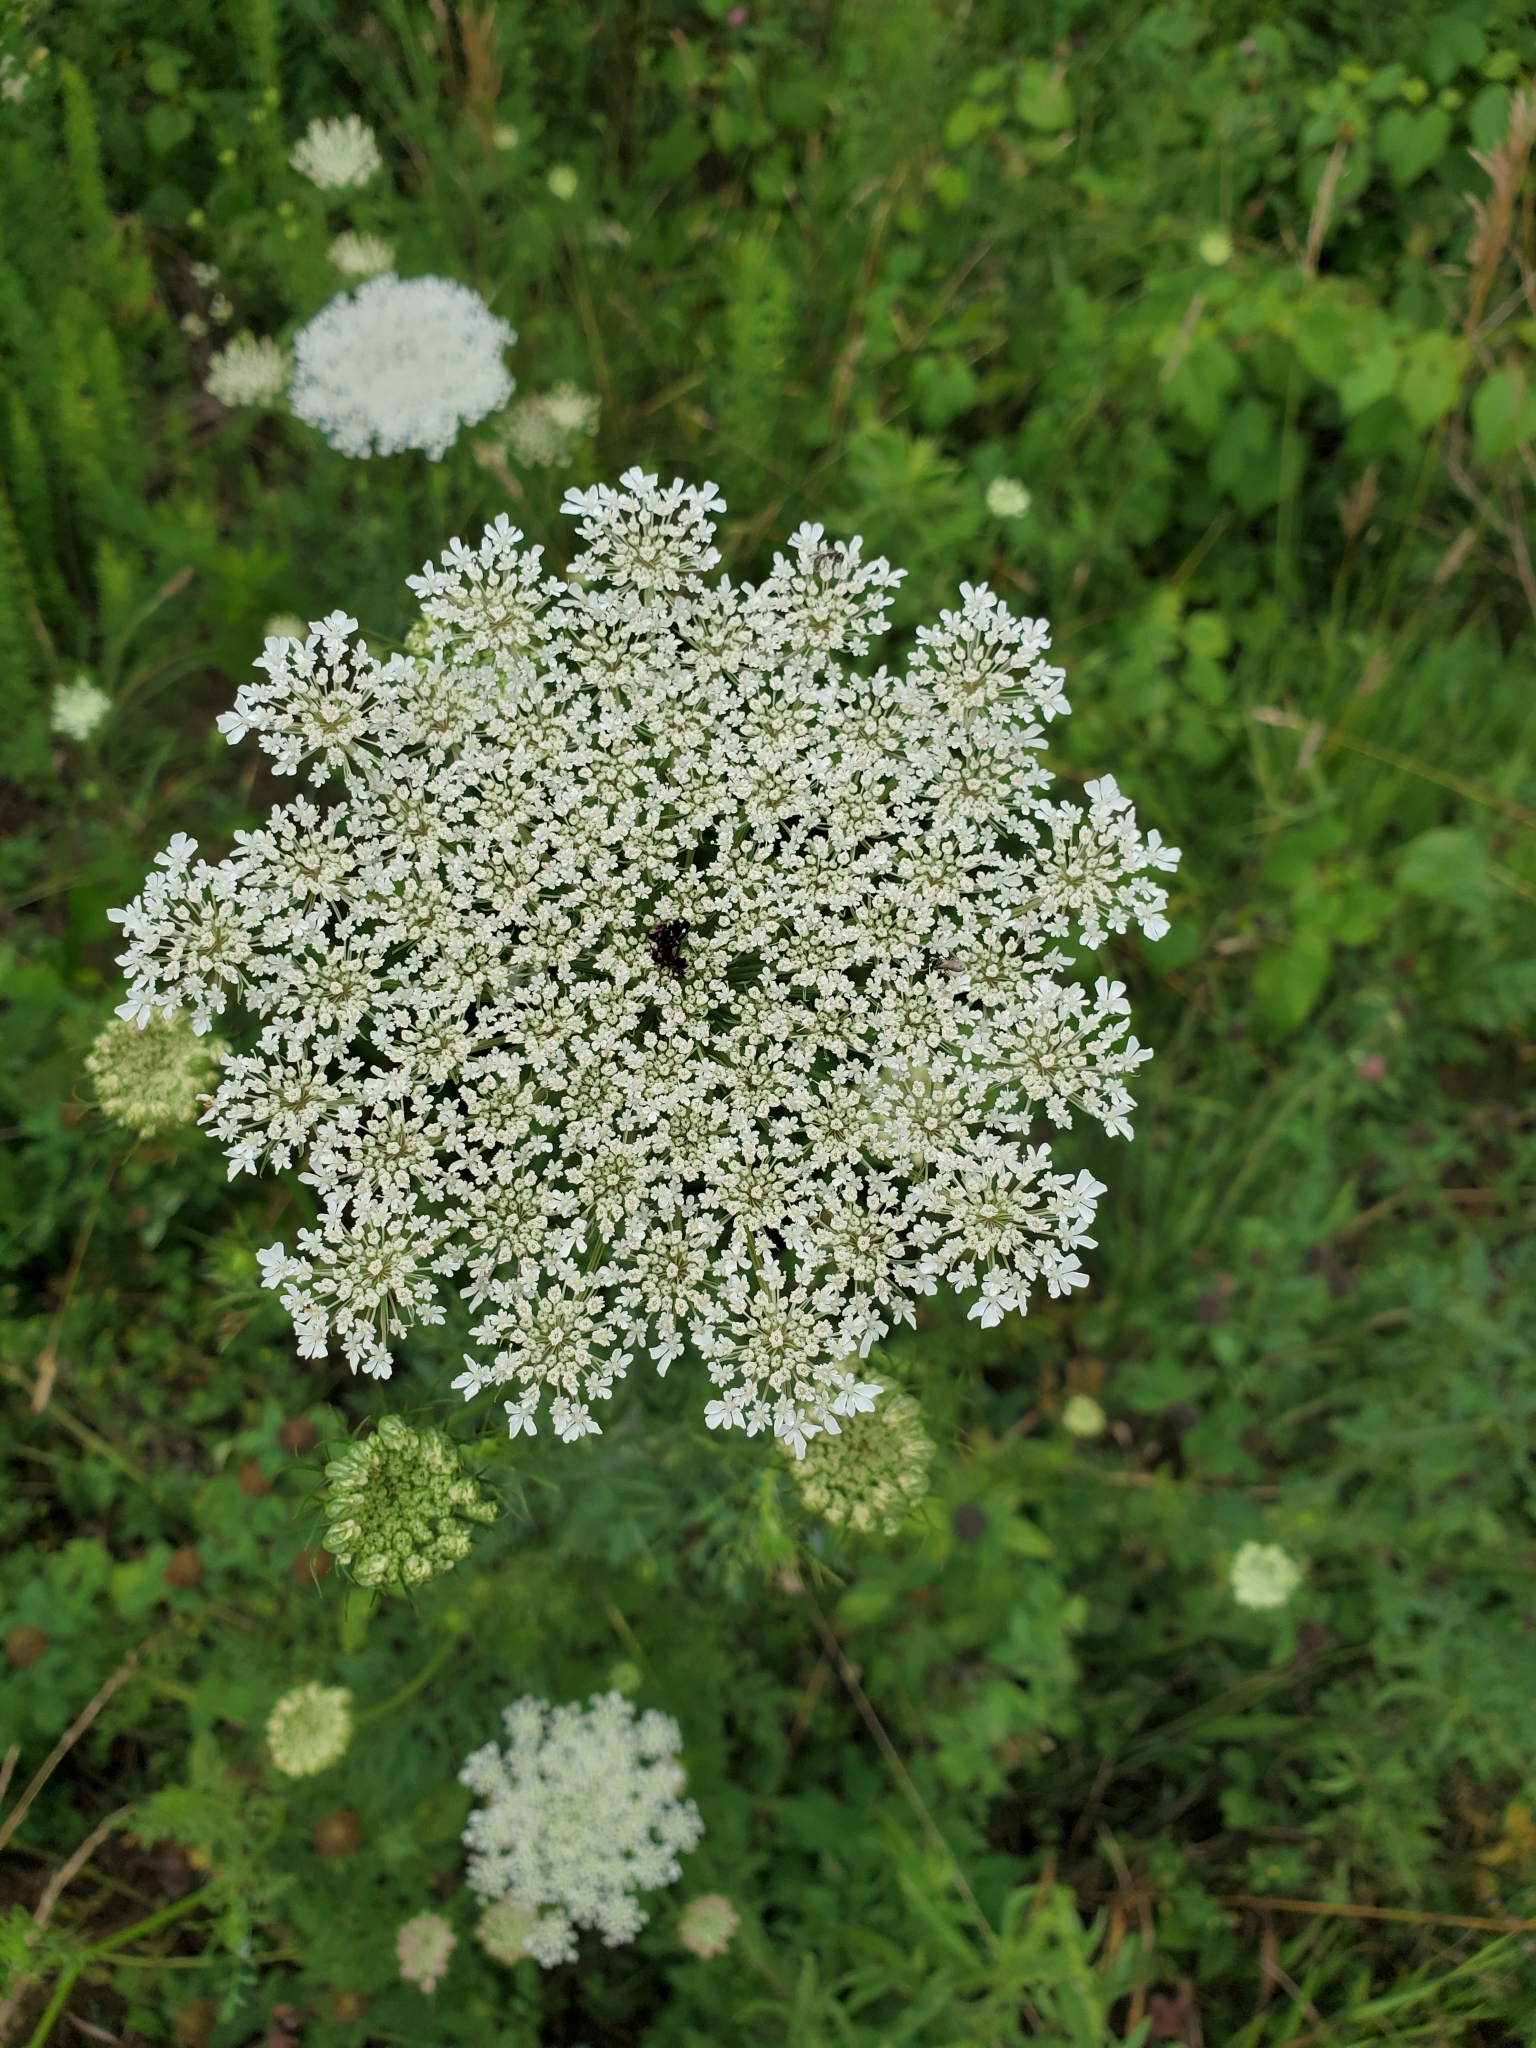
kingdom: Plantae
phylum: Tracheophyta
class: Magnoliopsida
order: Apiales
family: Apiaceae
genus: Daucus
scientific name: Daucus carota
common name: Wild carrot
